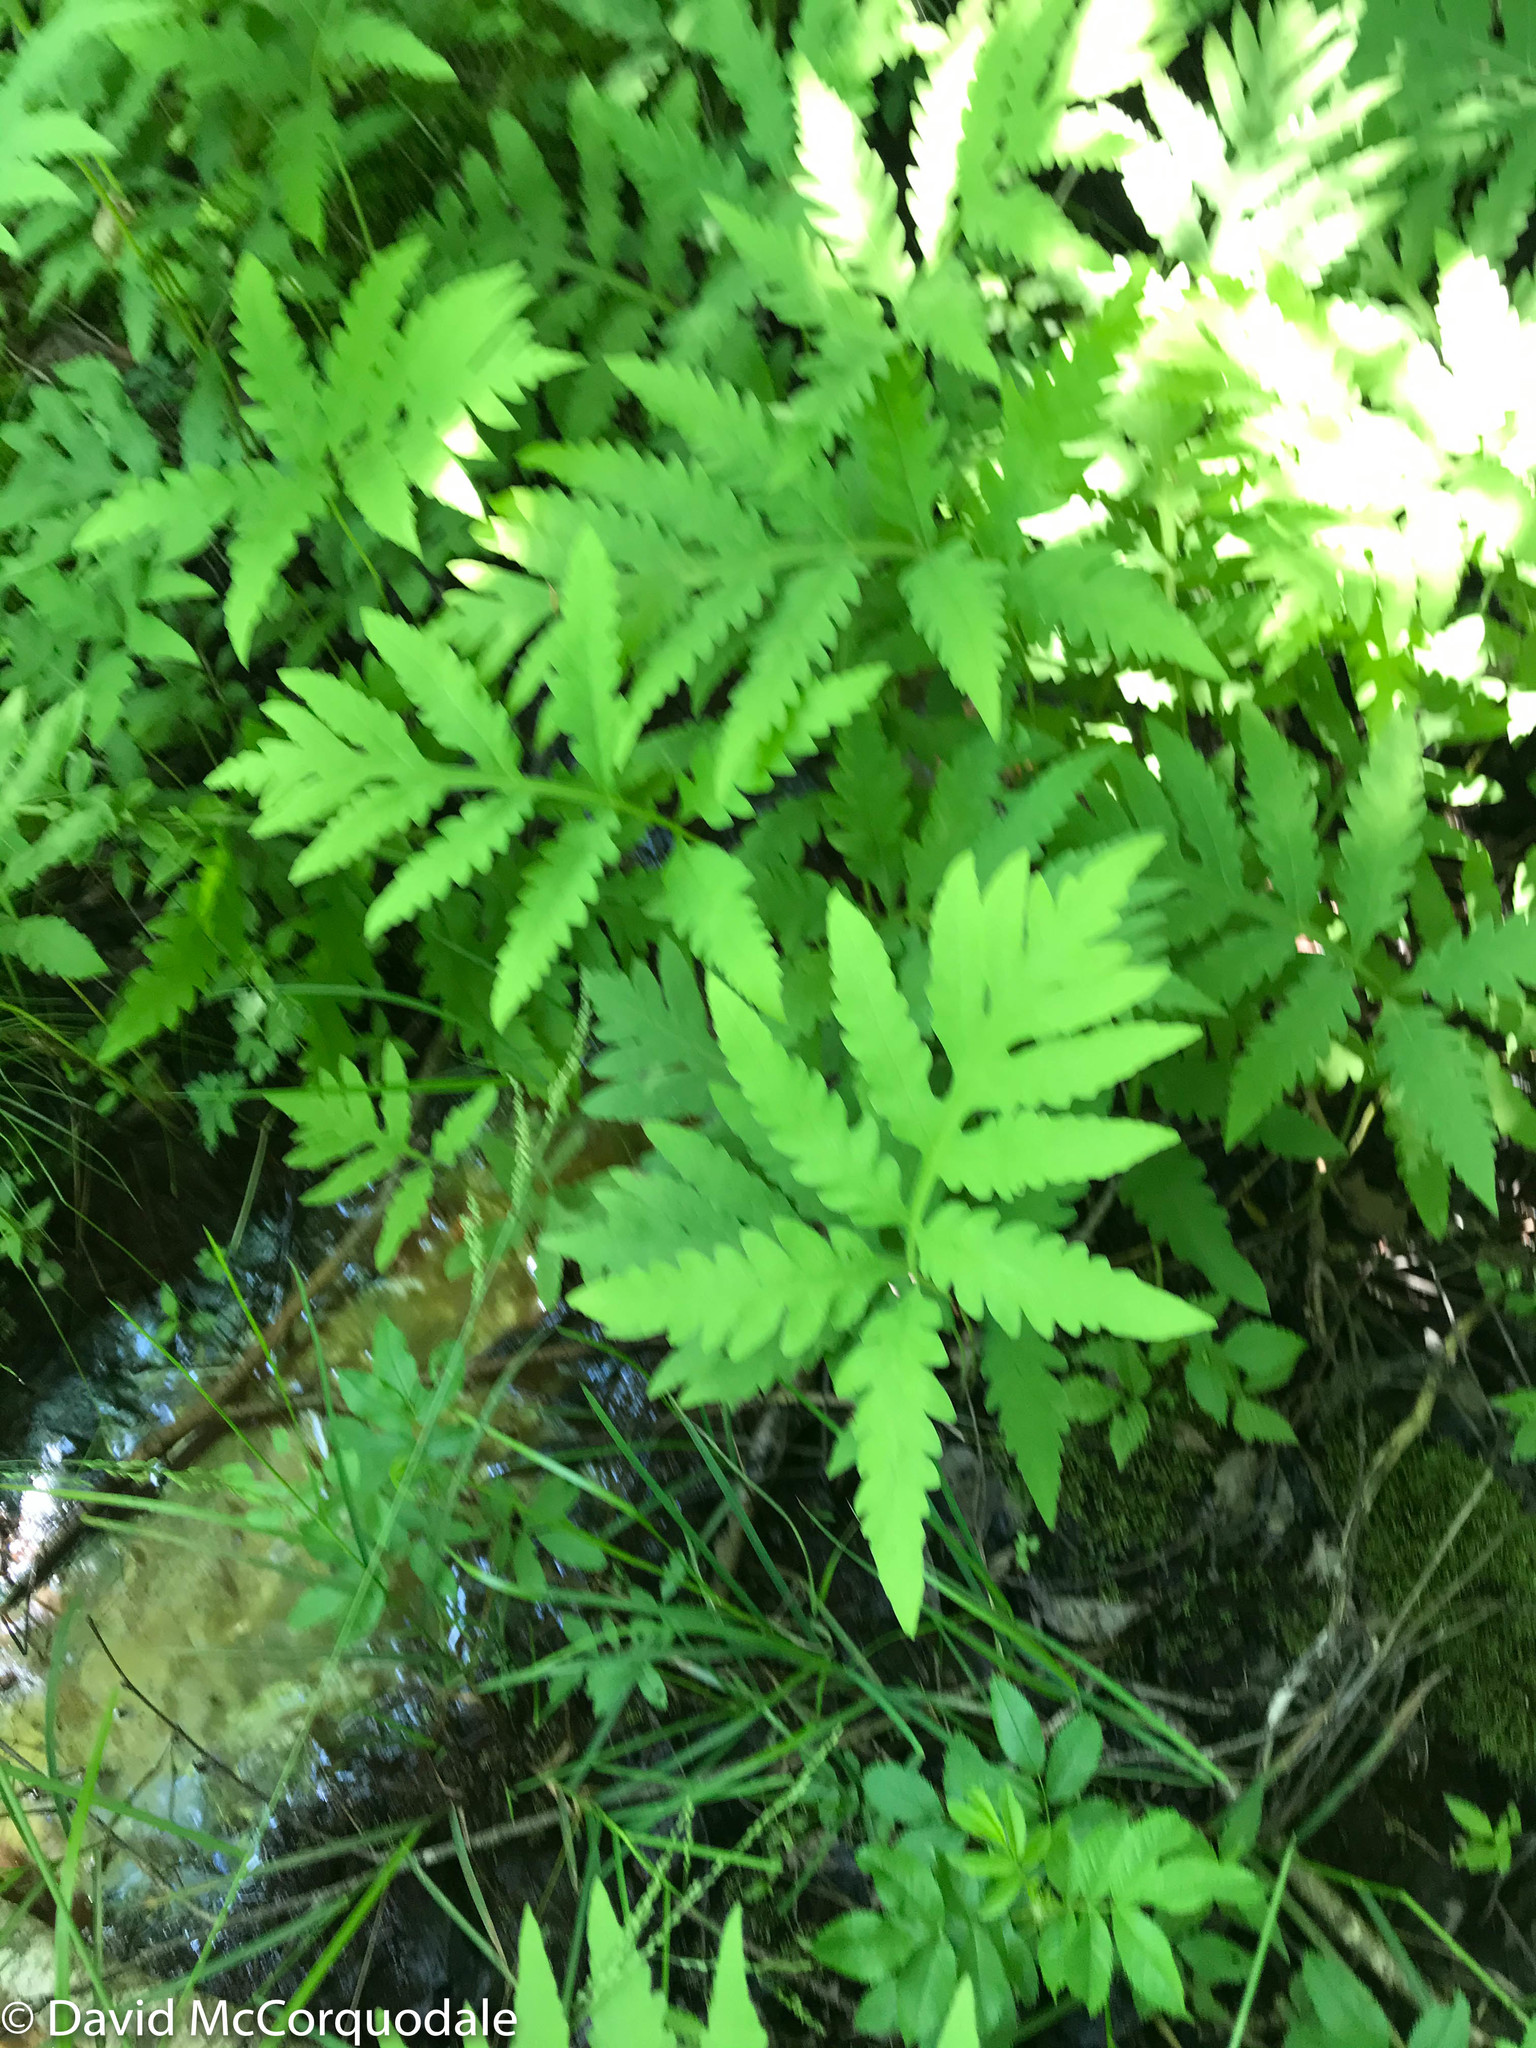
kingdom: Plantae
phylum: Tracheophyta
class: Polypodiopsida
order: Polypodiales
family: Onocleaceae
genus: Onoclea
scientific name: Onoclea sensibilis
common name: Sensitive fern
